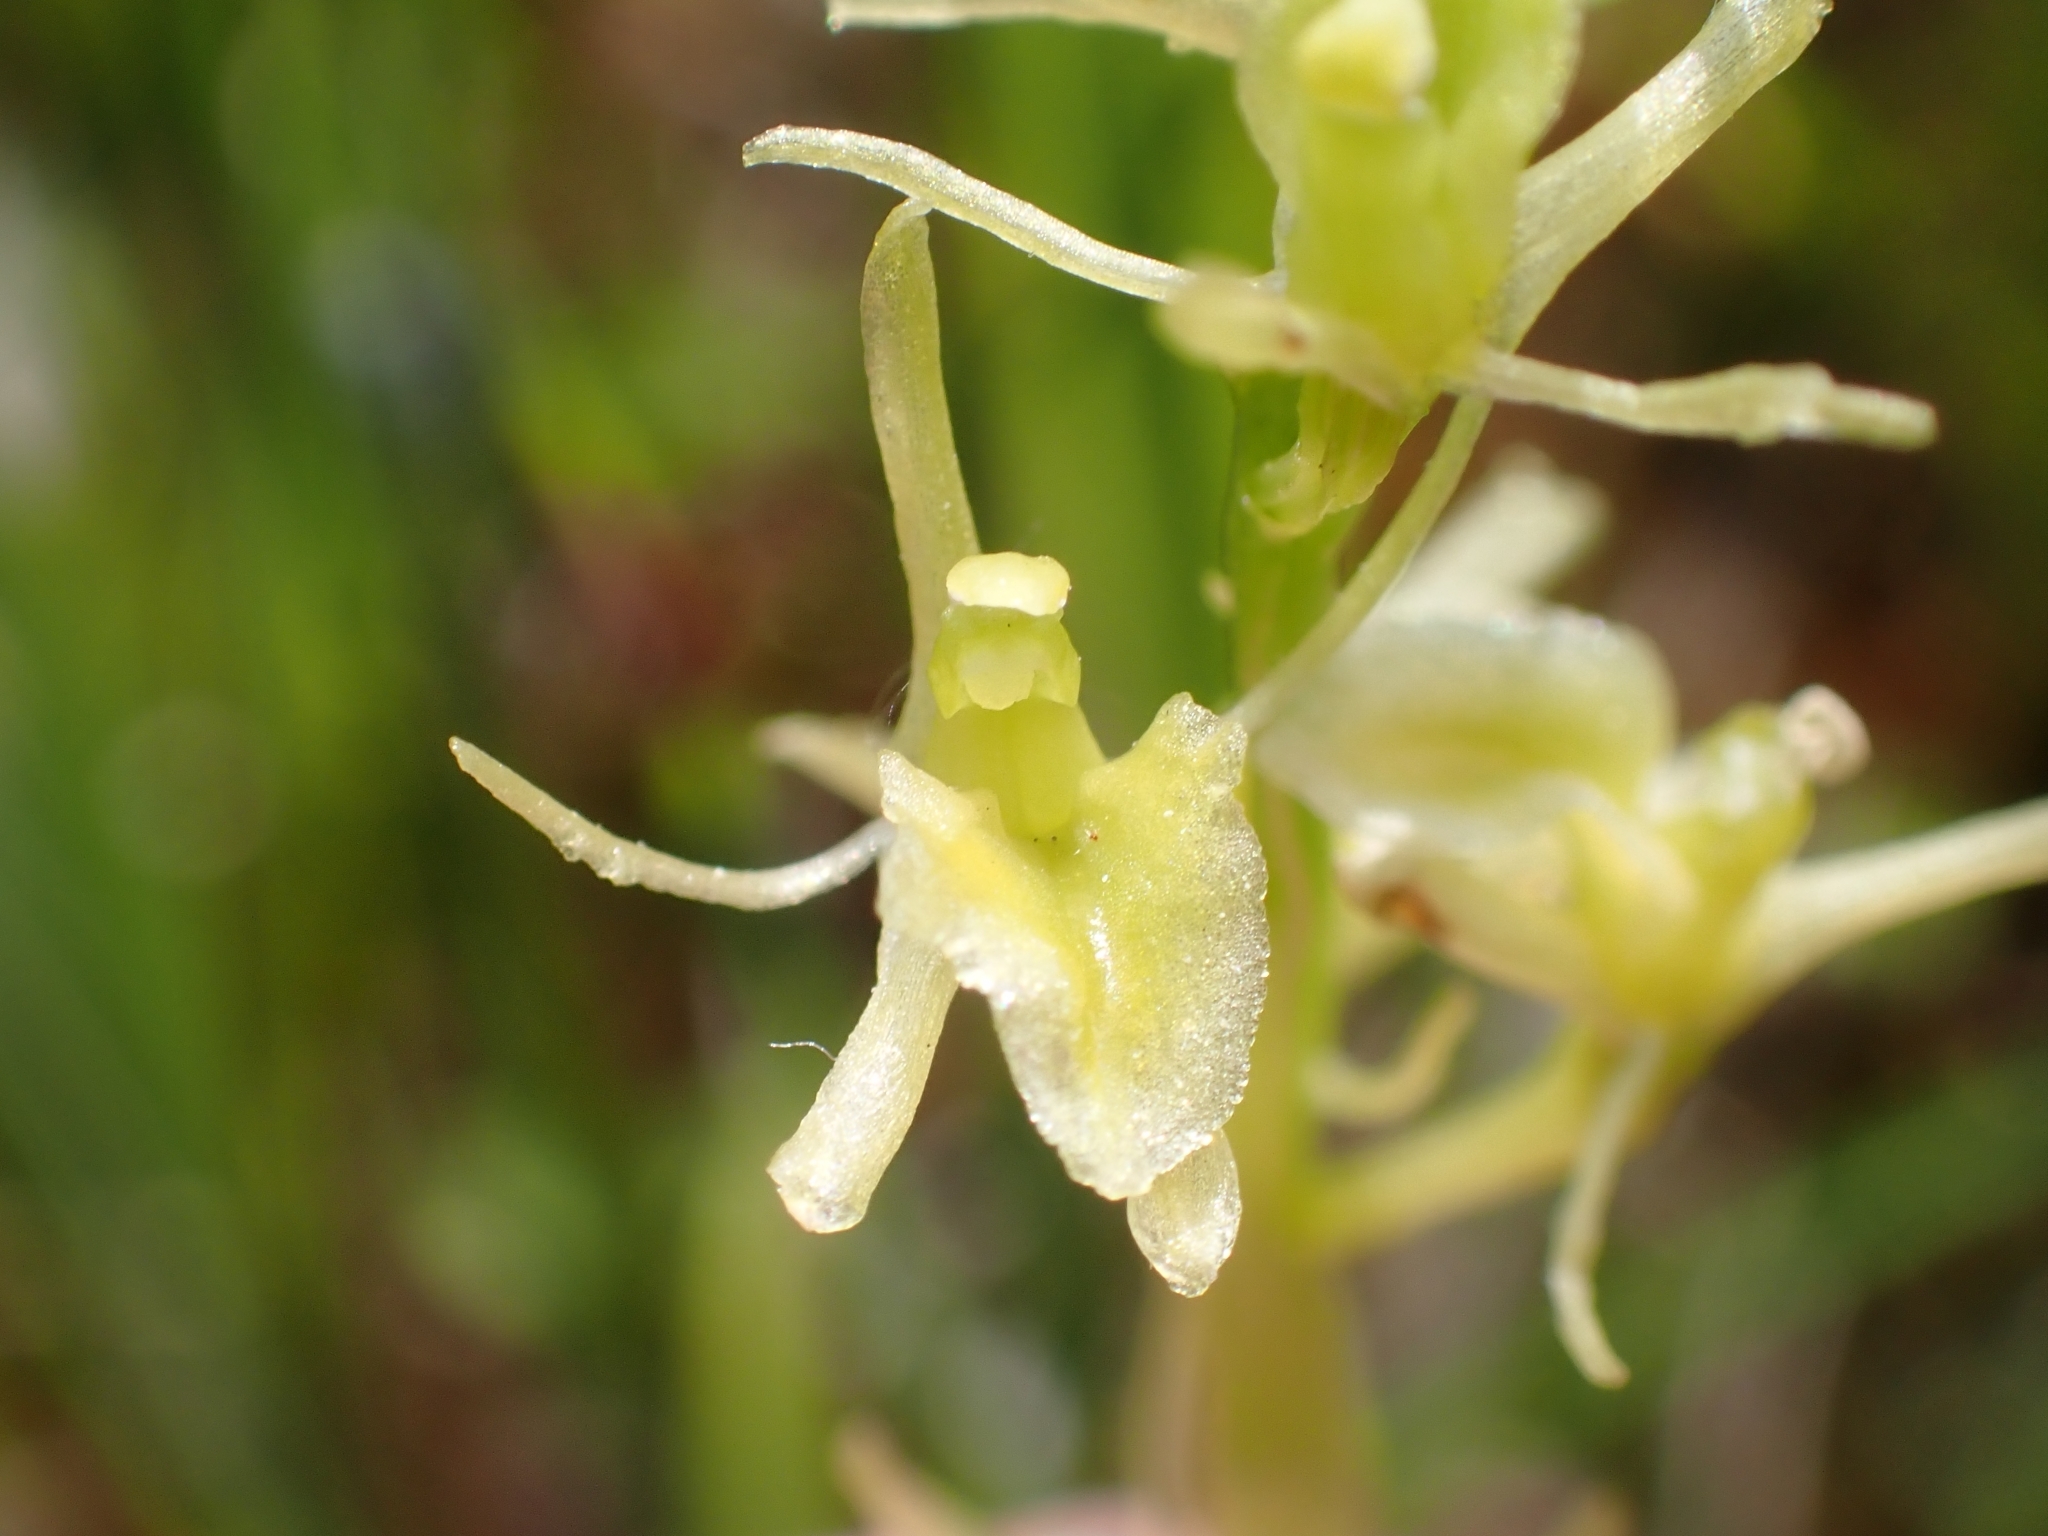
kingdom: Animalia
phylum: Arthropoda
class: Insecta
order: Coleoptera
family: Curculionidae
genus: Liparis
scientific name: Liparis loeselii
